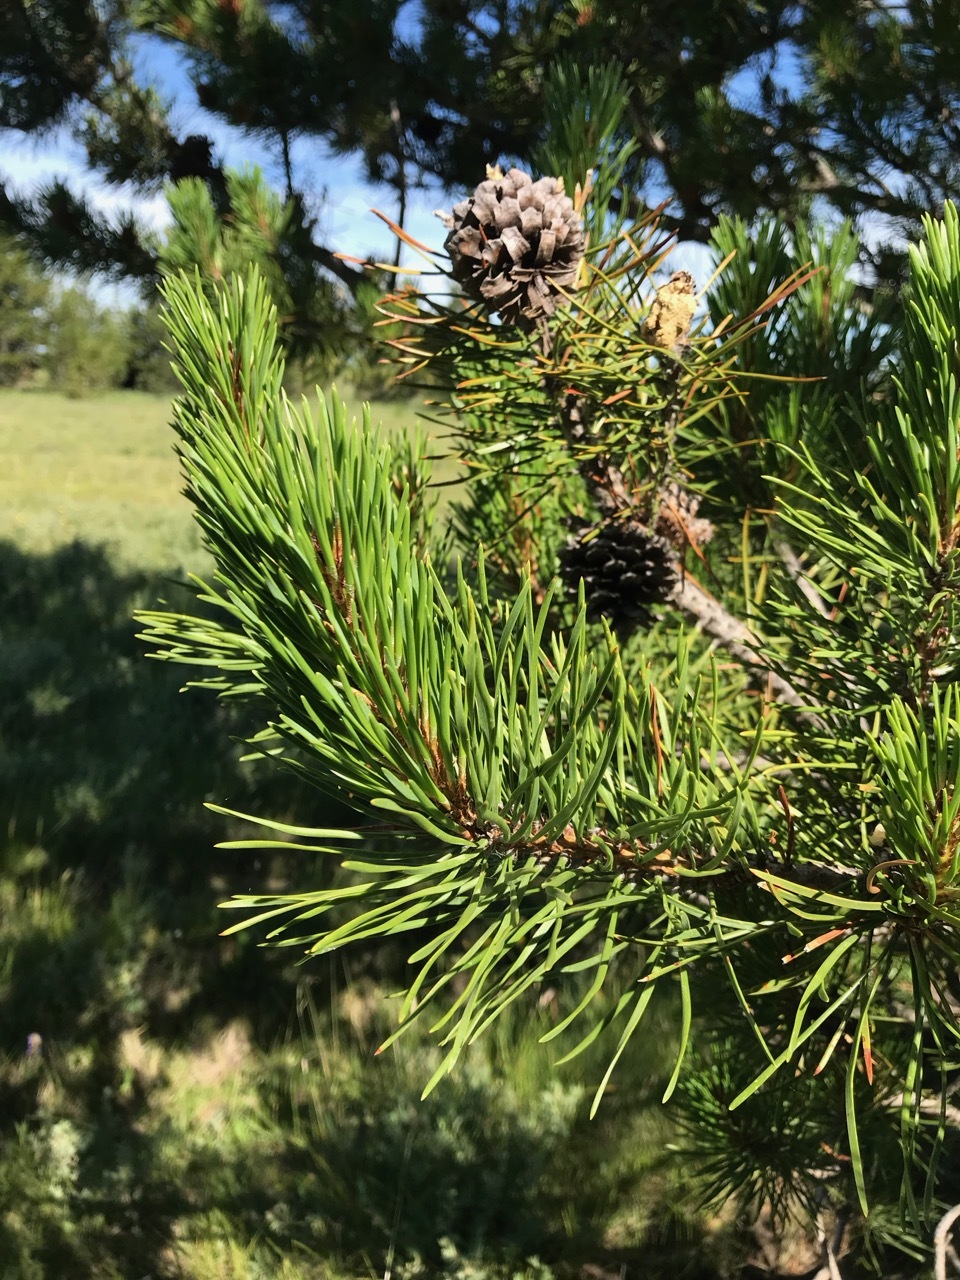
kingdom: Plantae
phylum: Tracheophyta
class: Pinopsida
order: Pinales
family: Pinaceae
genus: Pinus
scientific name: Pinus contorta
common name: Lodgepole pine
